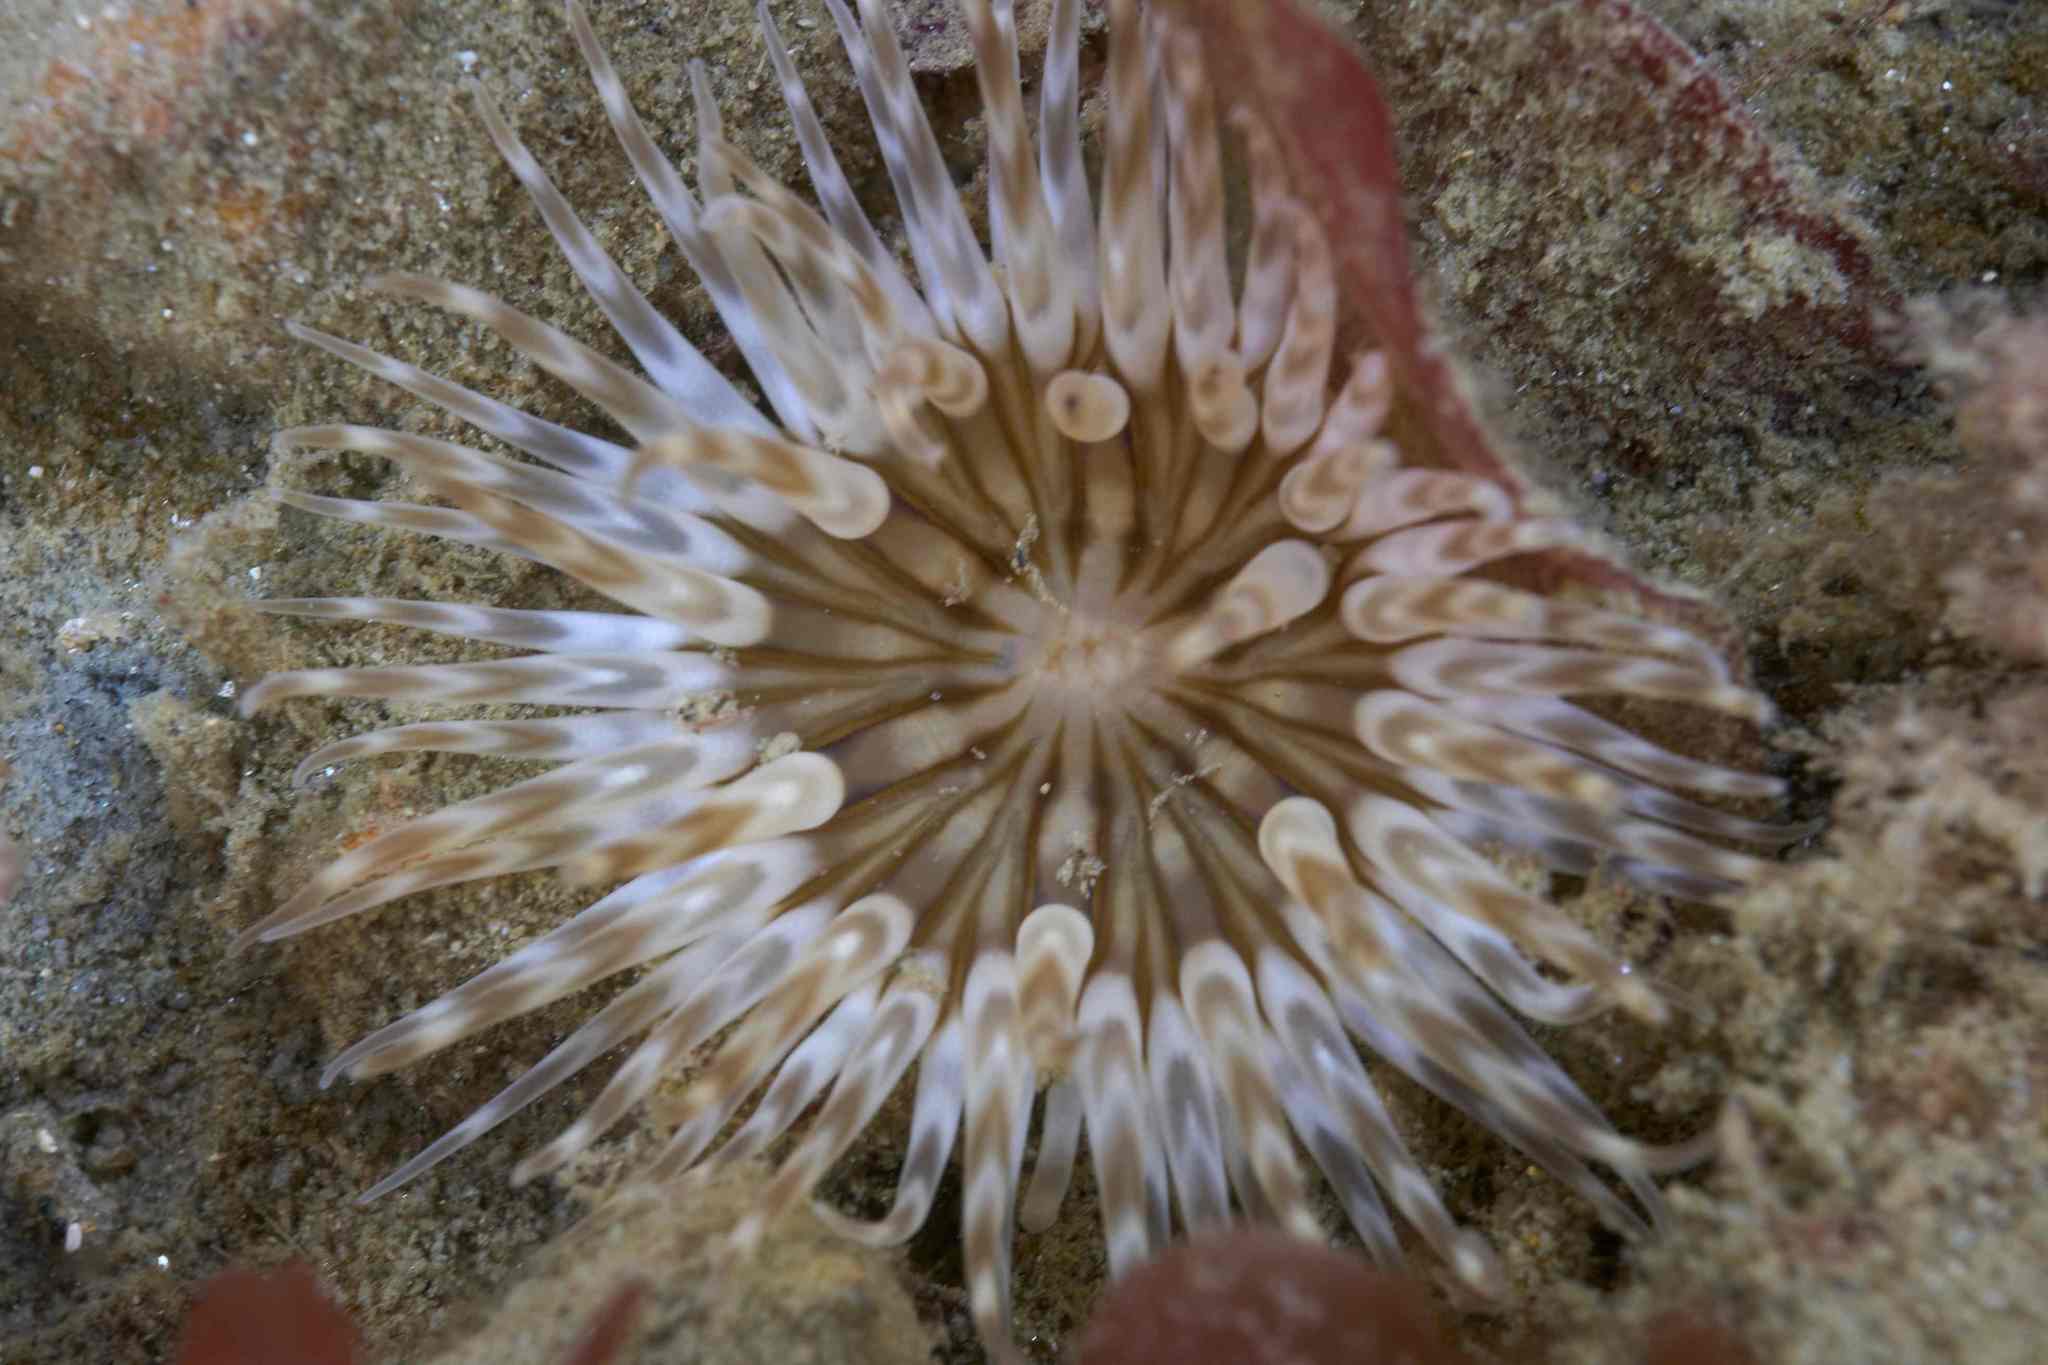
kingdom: Animalia
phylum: Cnidaria
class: Anthozoa
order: Actiniaria
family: Isanthidae
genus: Isoparactis
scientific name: Isoparactis ferax
